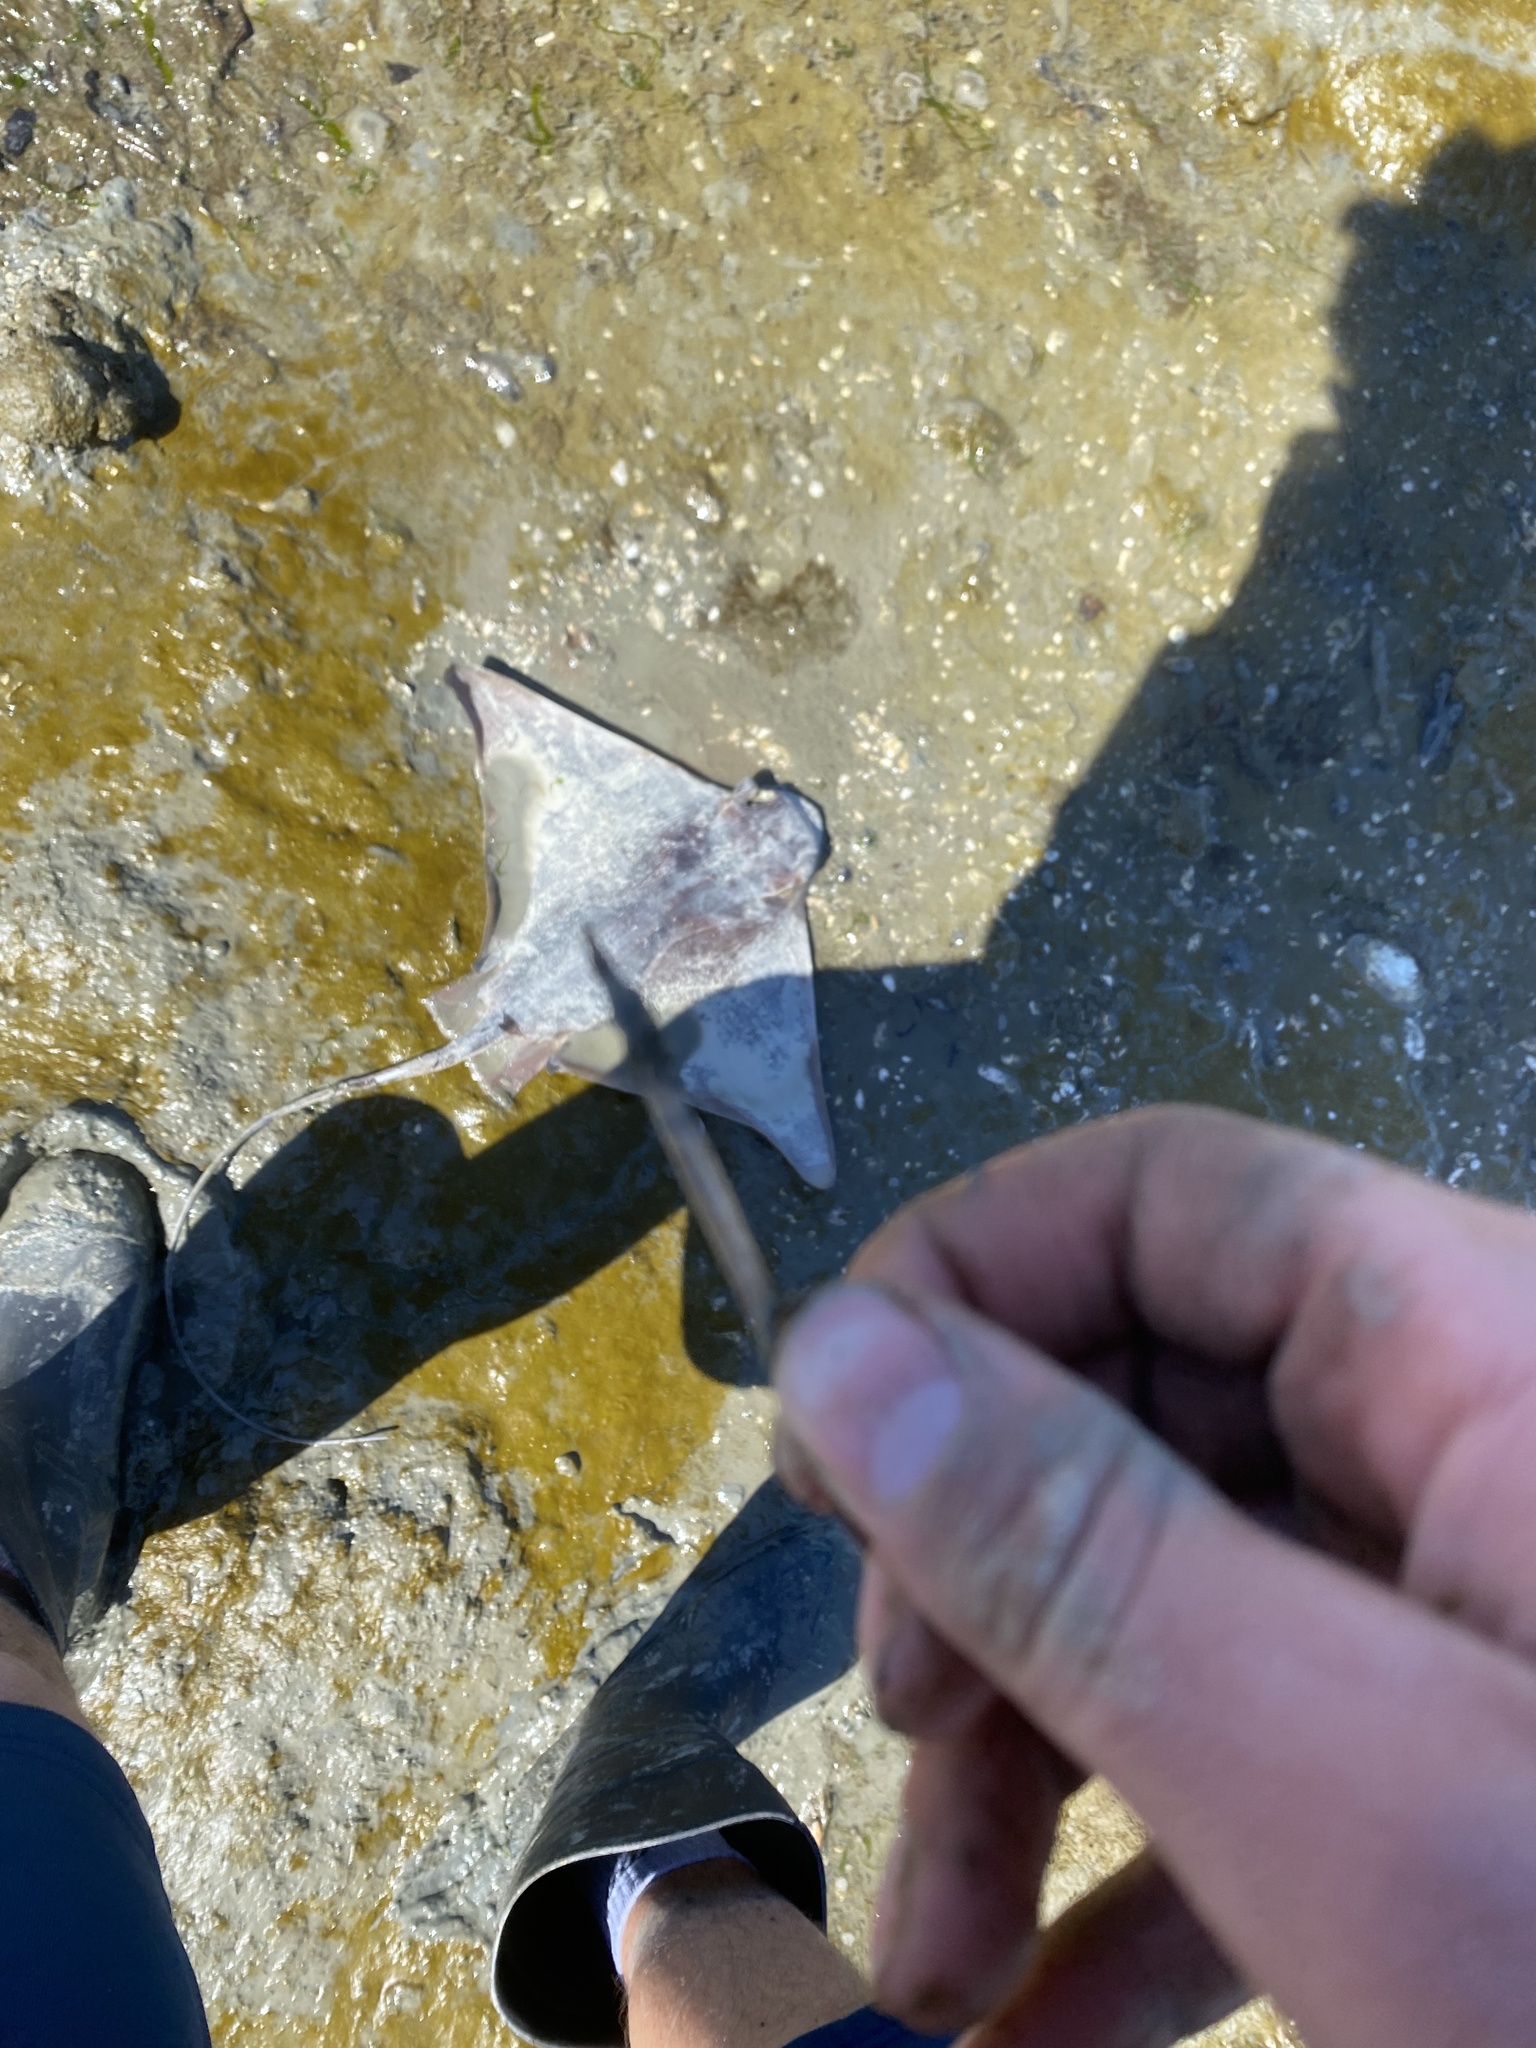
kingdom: Animalia
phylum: Chordata
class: Elasmobranchii
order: Myliobatiformes
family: Myliobatidae
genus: Myliobatis
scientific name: Myliobatis californica
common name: Bat ray
